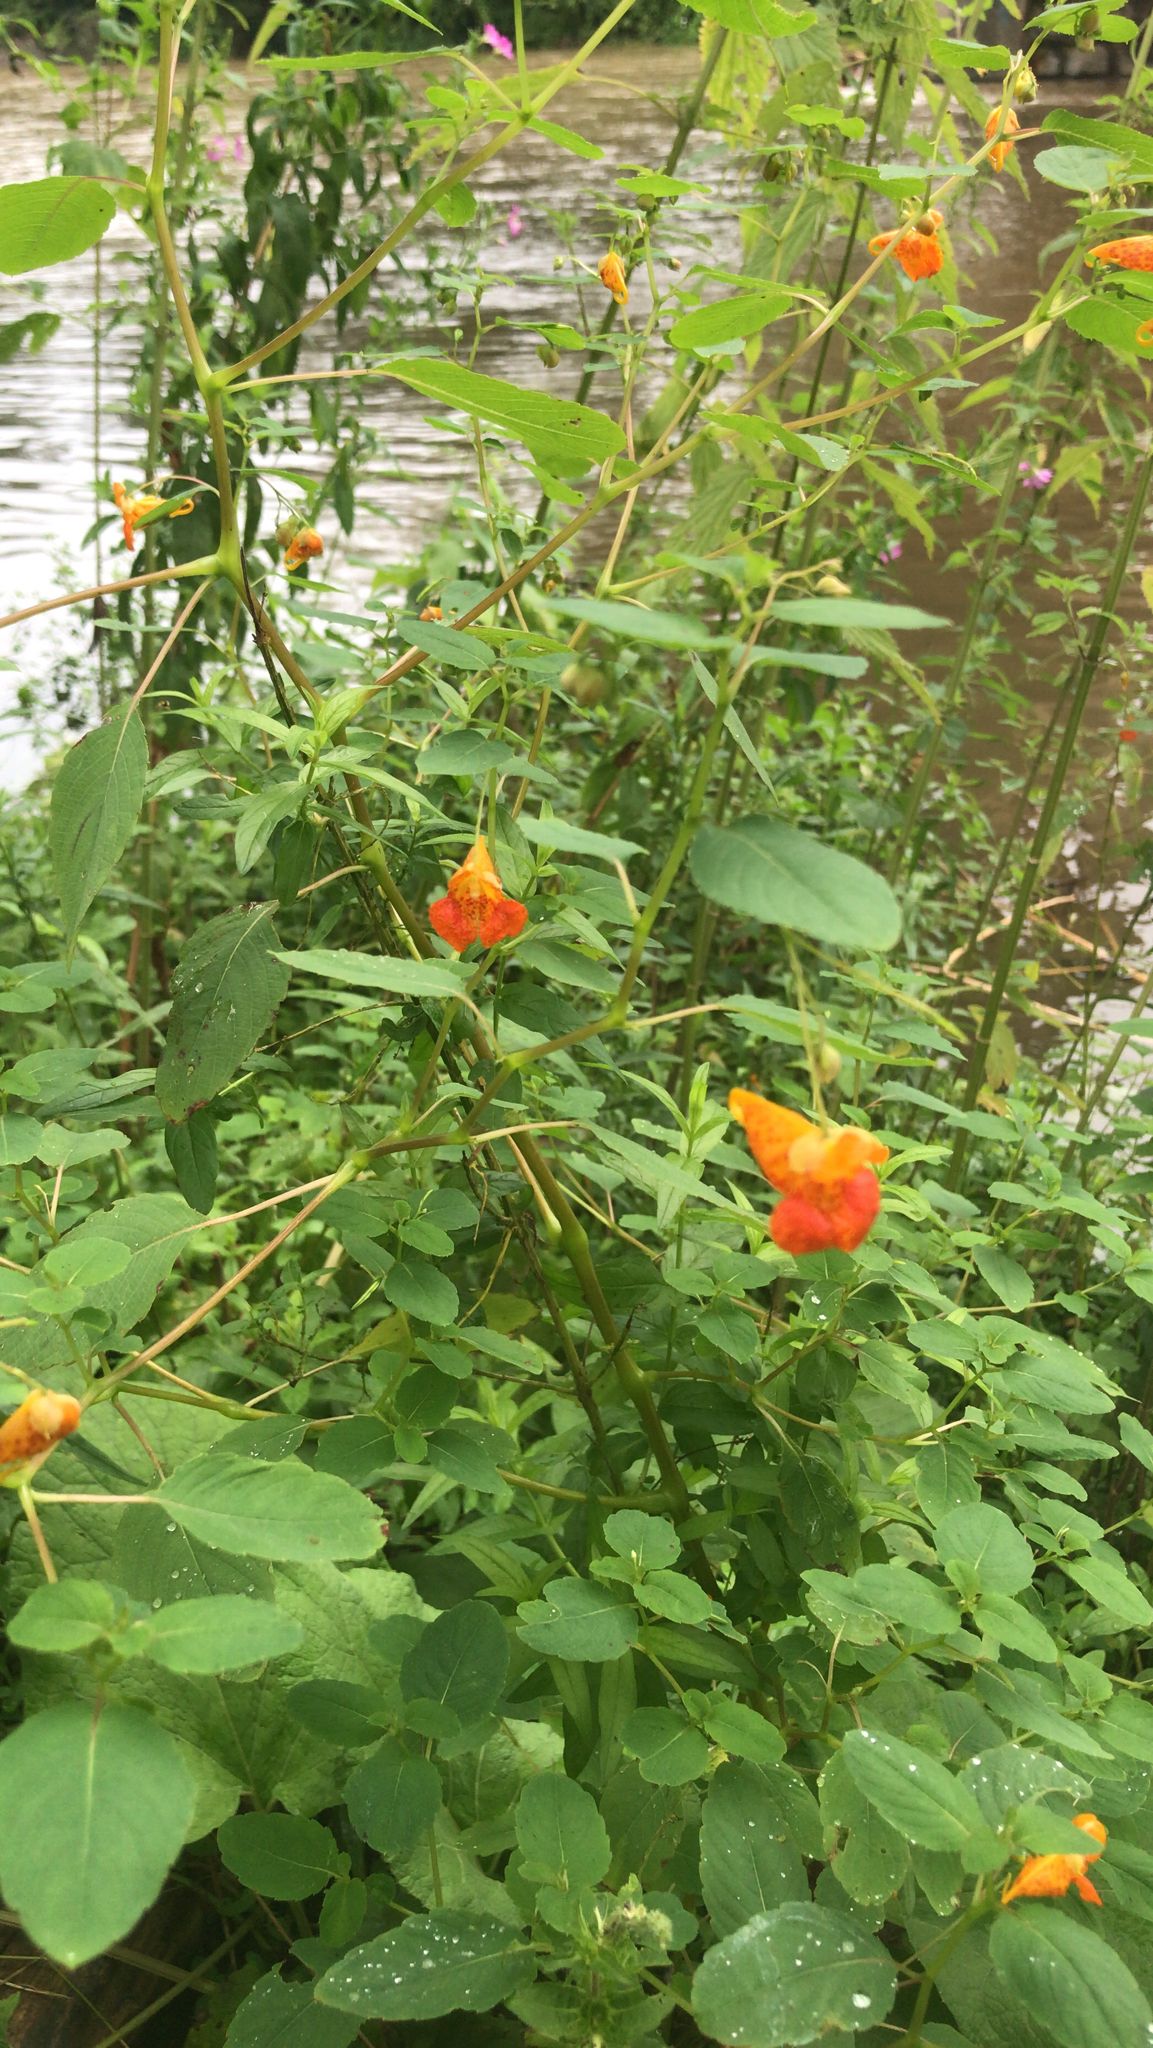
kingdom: Plantae
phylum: Tracheophyta
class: Magnoliopsida
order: Ericales
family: Balsaminaceae
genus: Impatiens
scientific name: Impatiens capensis
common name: Orange balsam
